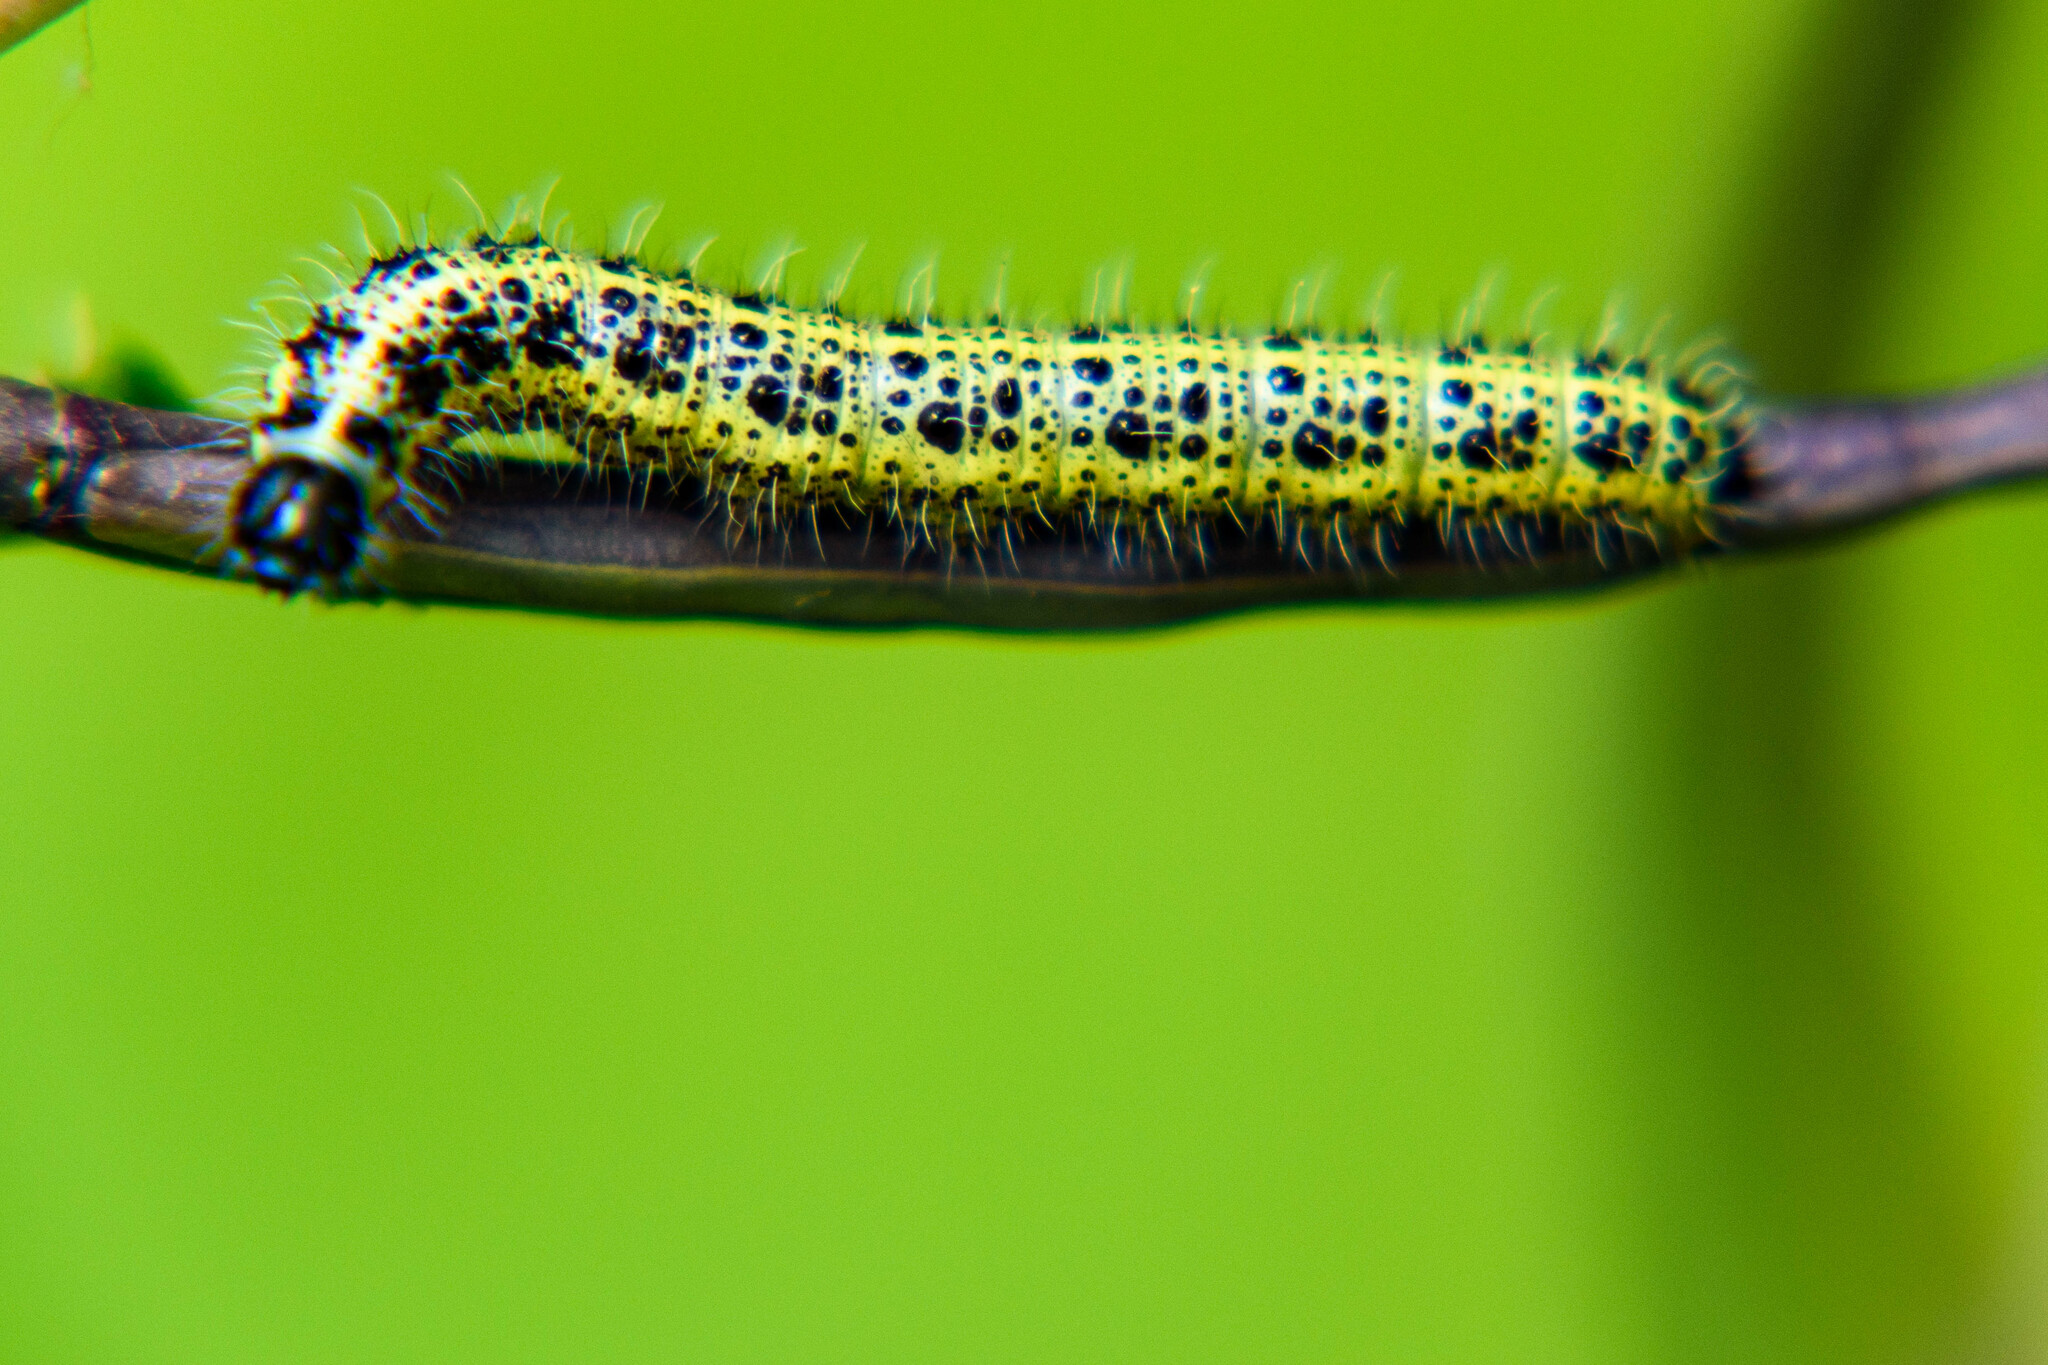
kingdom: Animalia
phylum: Arthropoda
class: Insecta
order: Lepidoptera
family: Pieridae
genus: Pieris
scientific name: Pieris brassicae
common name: Large white
